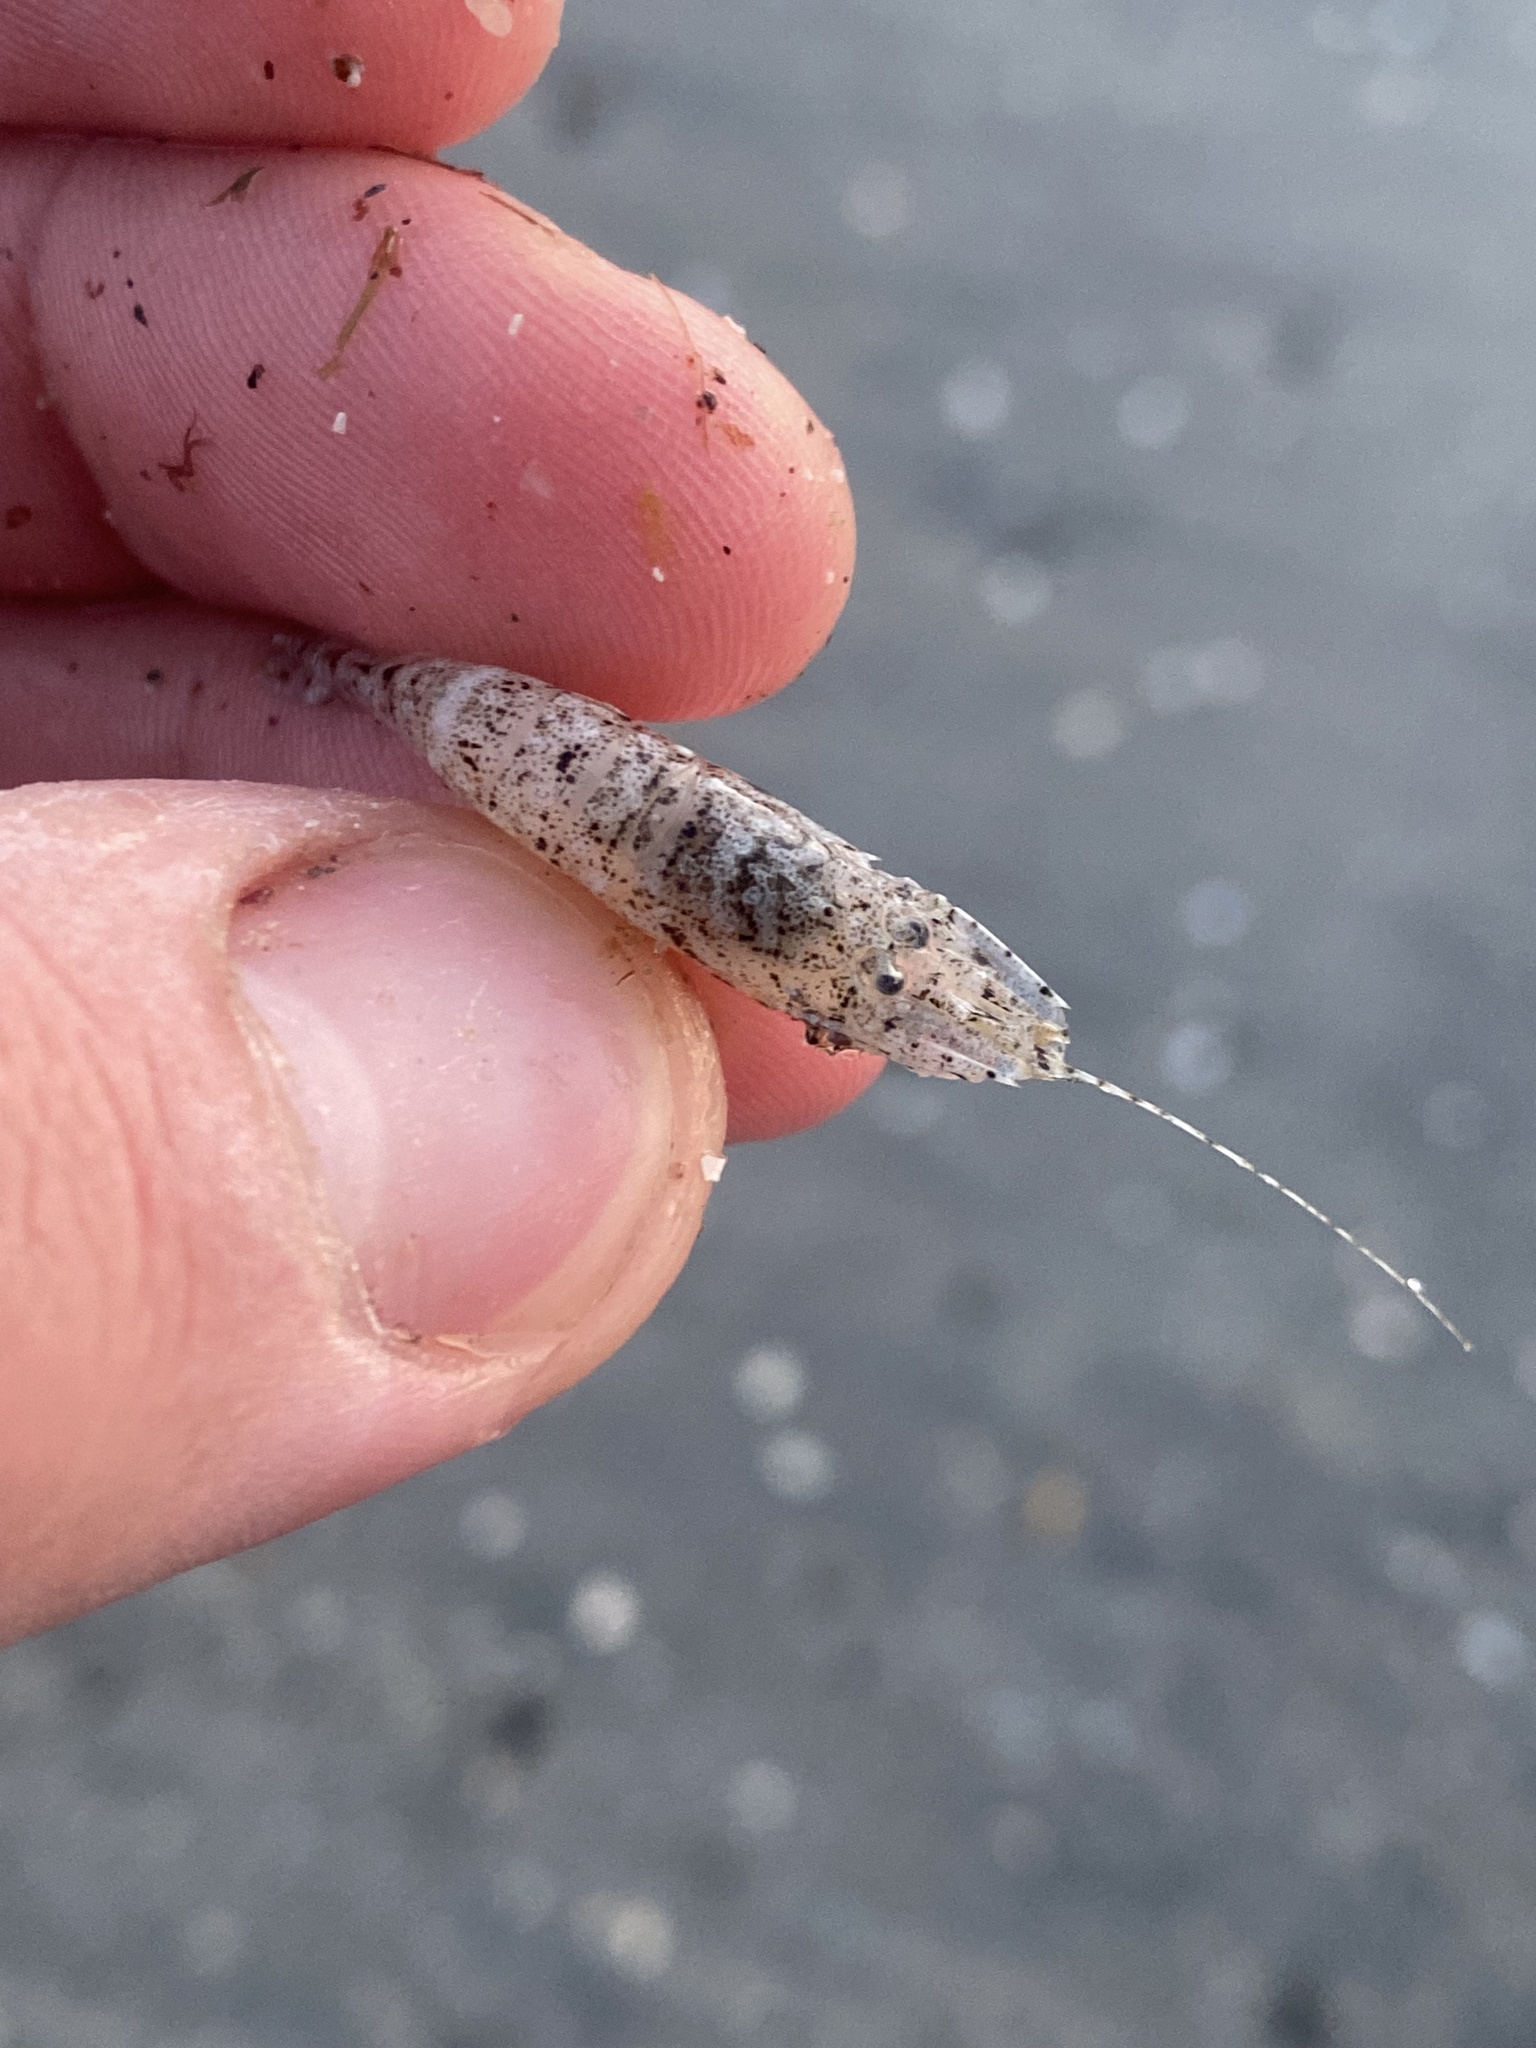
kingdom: Animalia
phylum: Arthropoda
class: Malacostraca
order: Decapoda
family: Crangonidae
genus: Crangon
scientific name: Crangon crangon
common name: Brown shrimp
